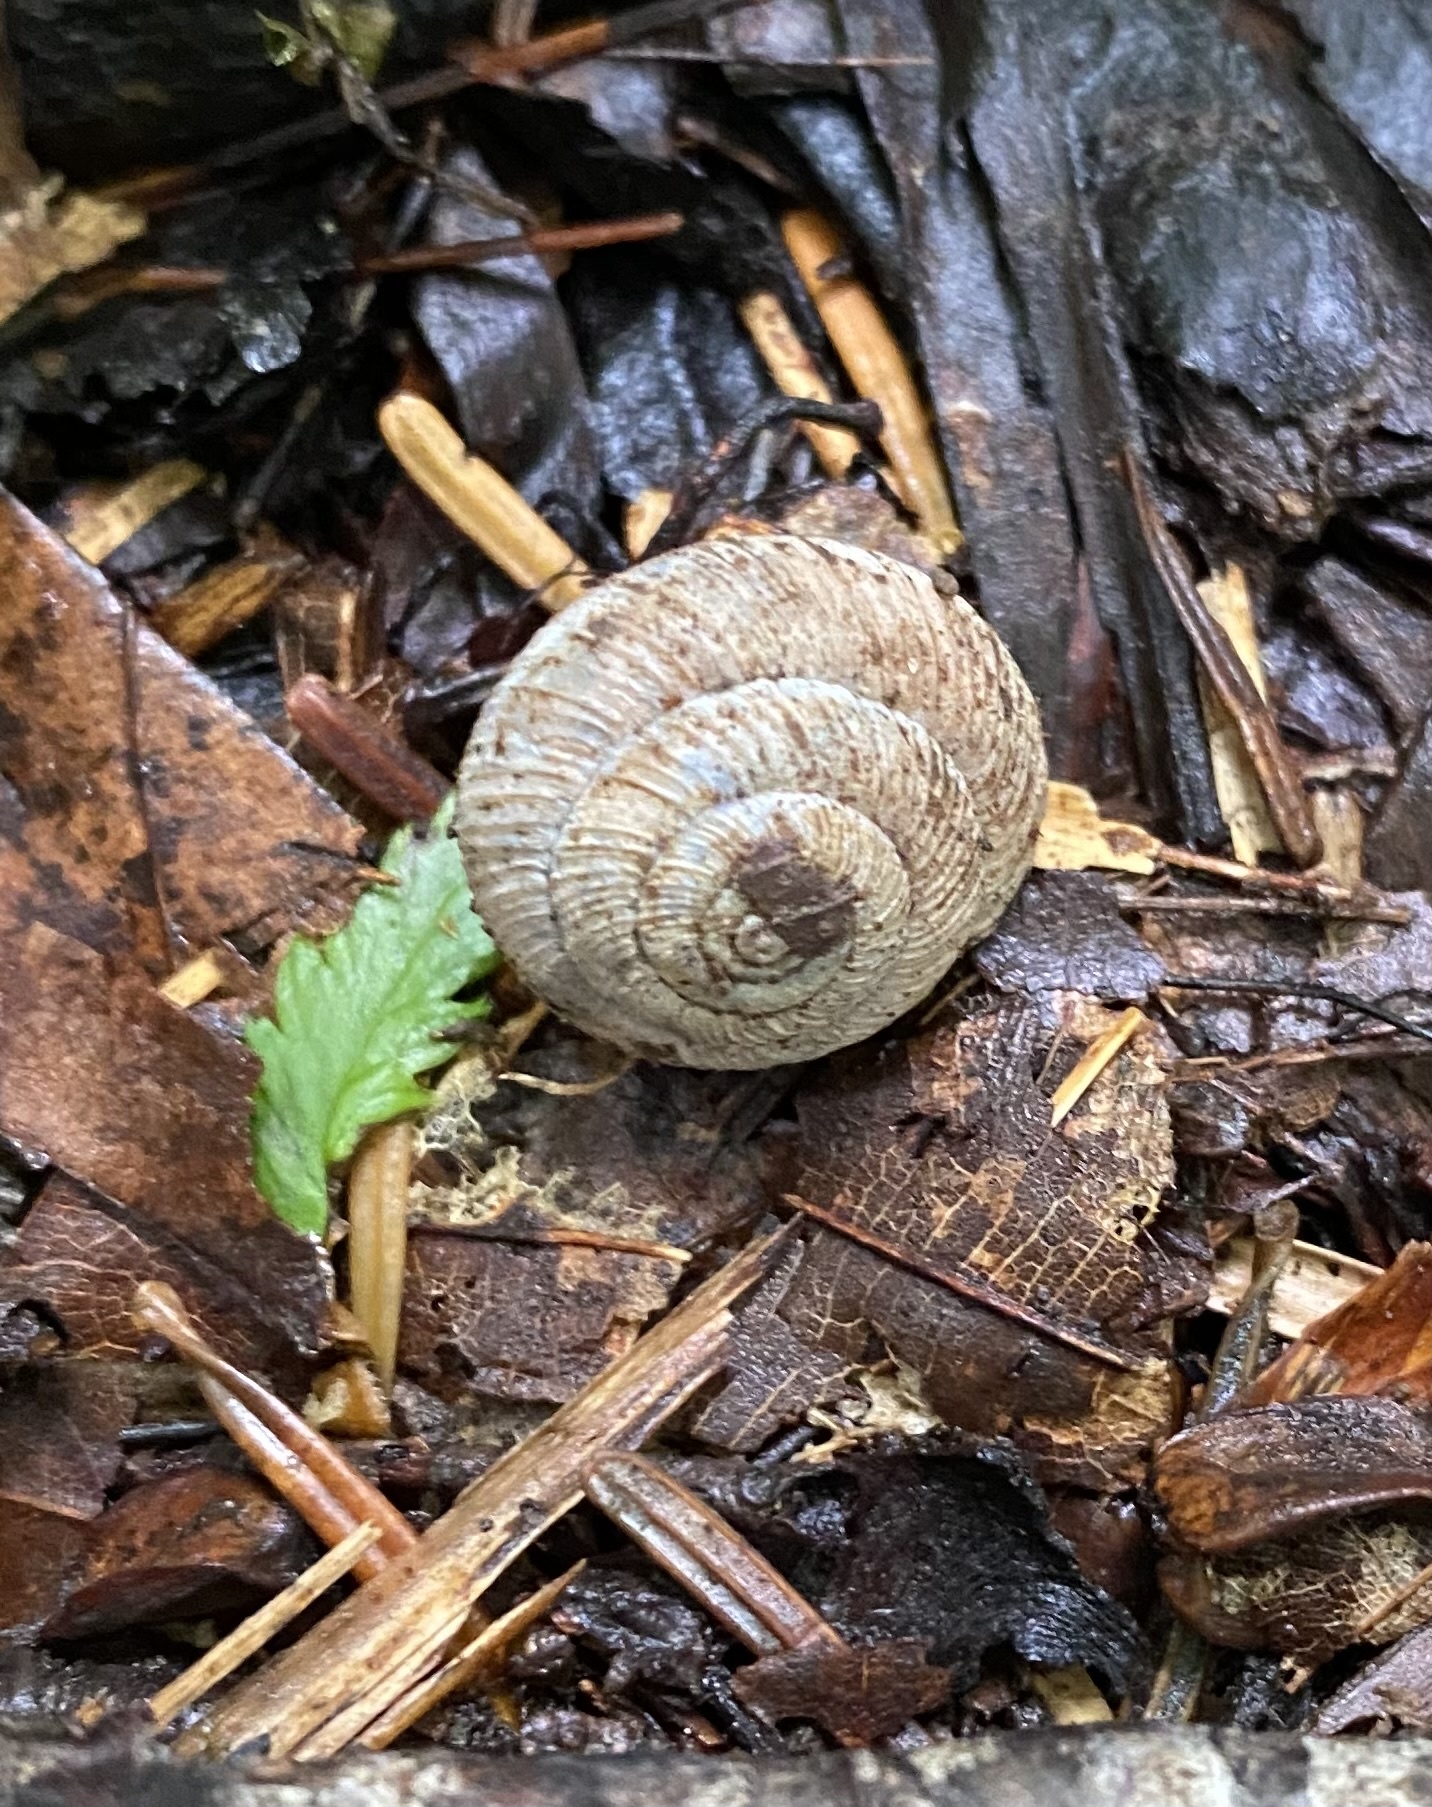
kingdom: Animalia
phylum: Mollusca
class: Gastropoda
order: Stylommatophora
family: Hygromiidae
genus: Oscarboettgeria
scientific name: Oscarboettgeria euages
